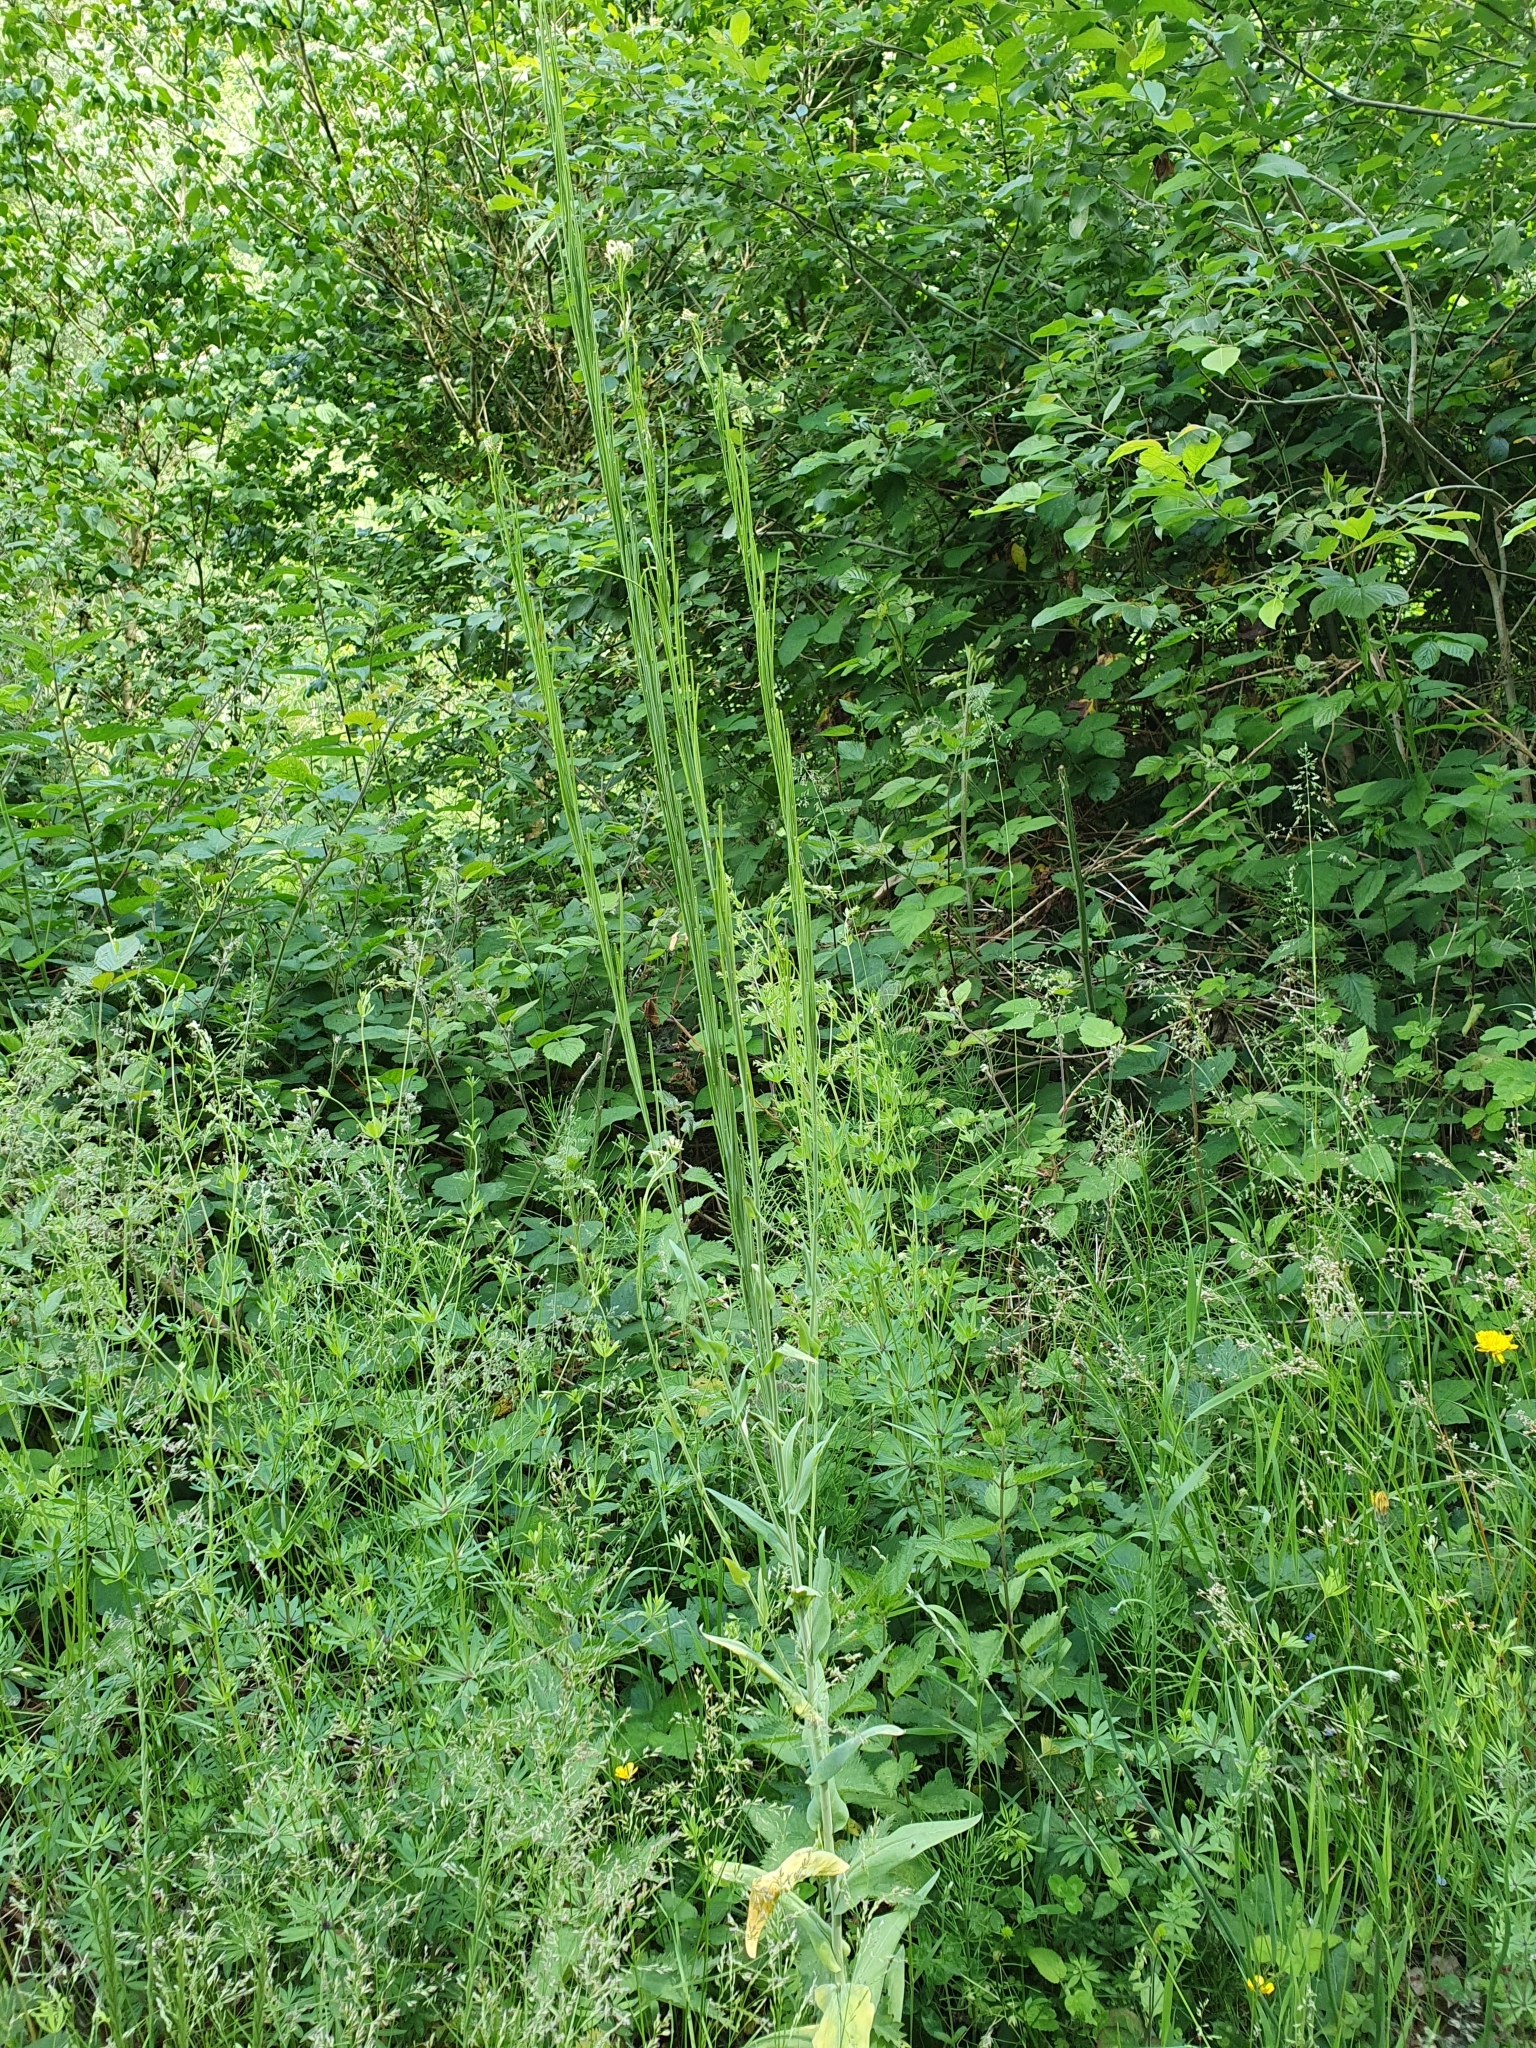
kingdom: Plantae
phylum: Tracheophyta
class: Magnoliopsida
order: Brassicales
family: Brassicaceae
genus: Turritis
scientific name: Turritis glabra
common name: Tower rockcress
